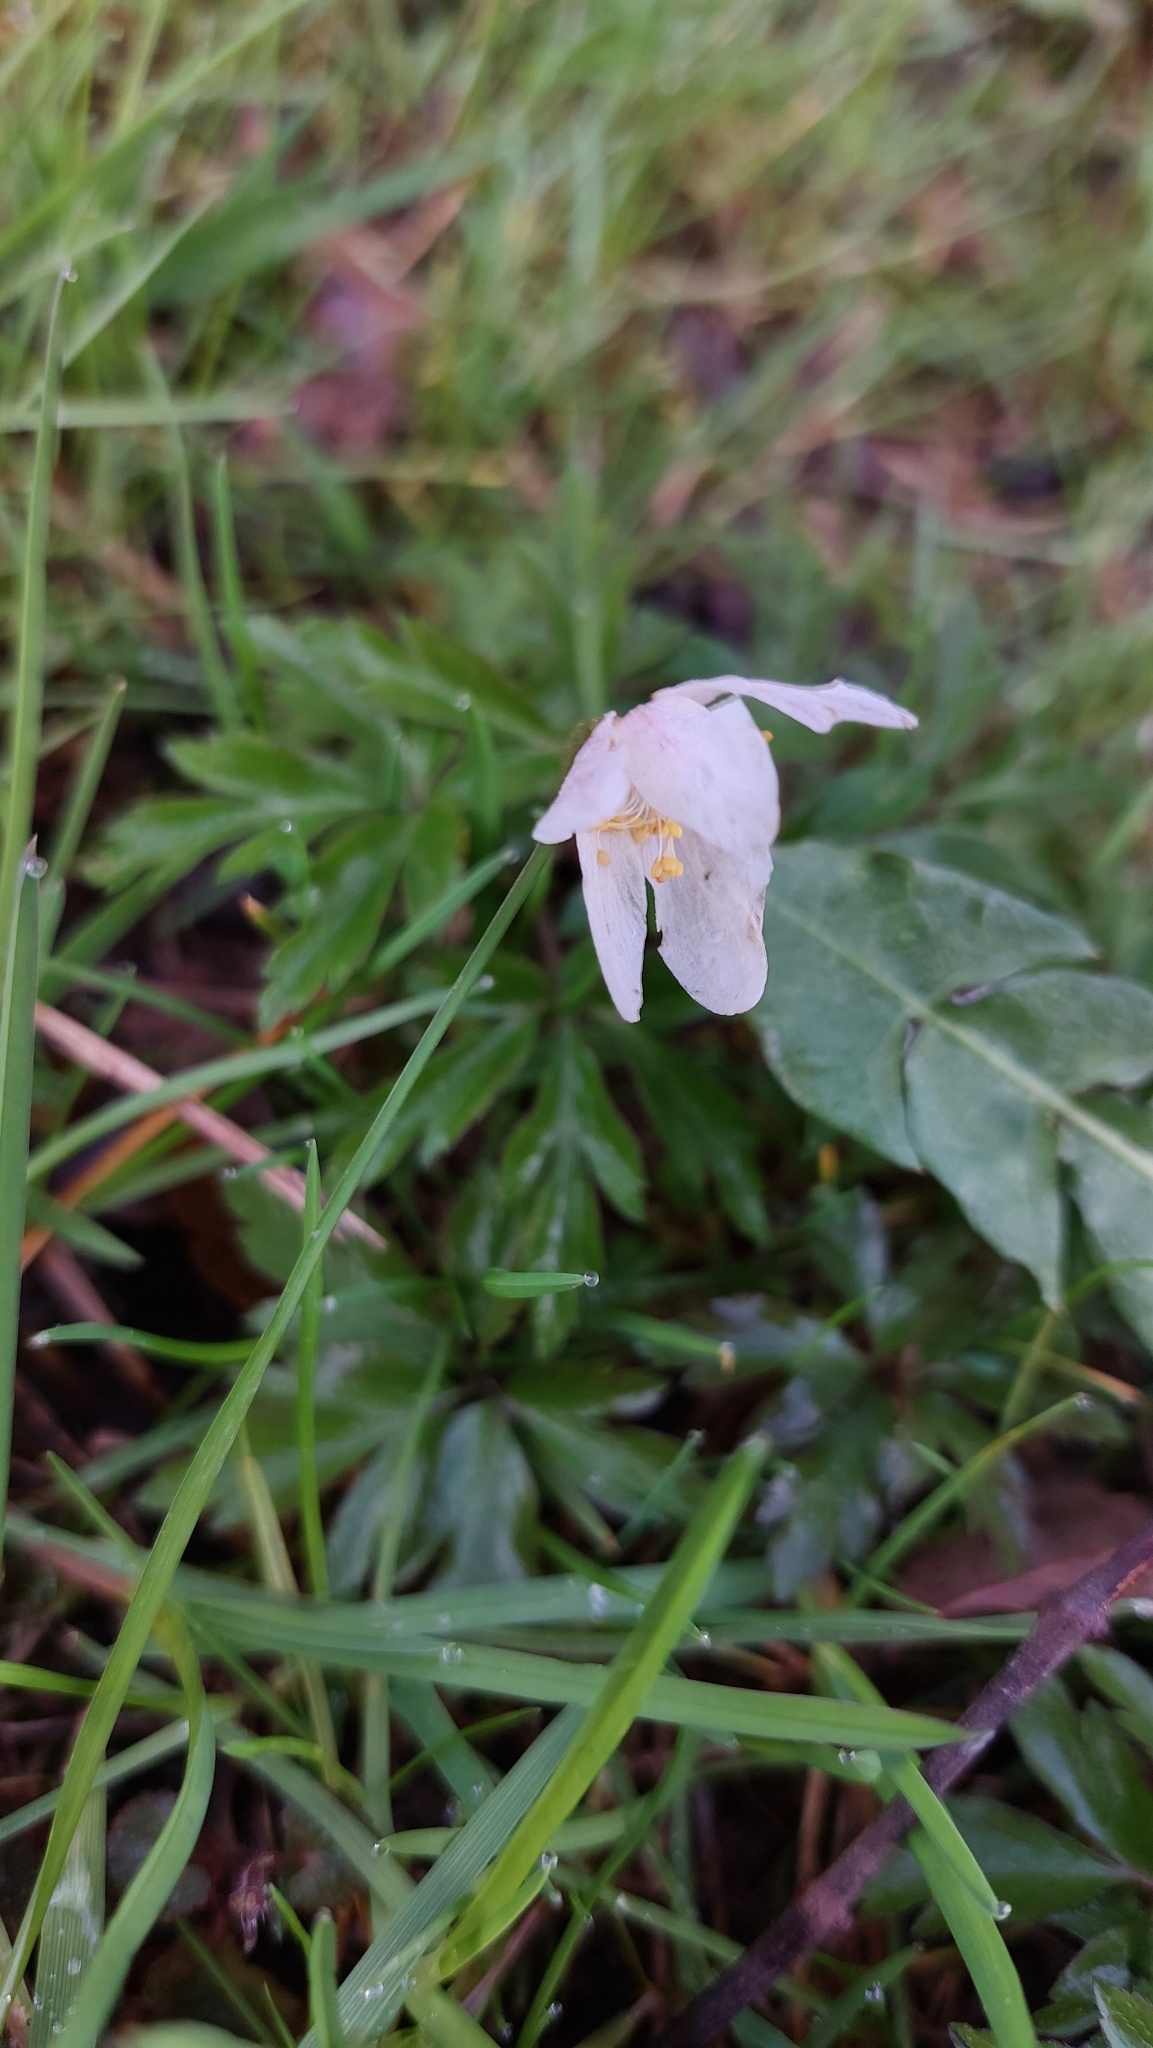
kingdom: Plantae
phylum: Tracheophyta
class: Magnoliopsida
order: Ranunculales
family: Ranunculaceae
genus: Anemone
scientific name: Anemone nemorosa
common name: Wood anemone
